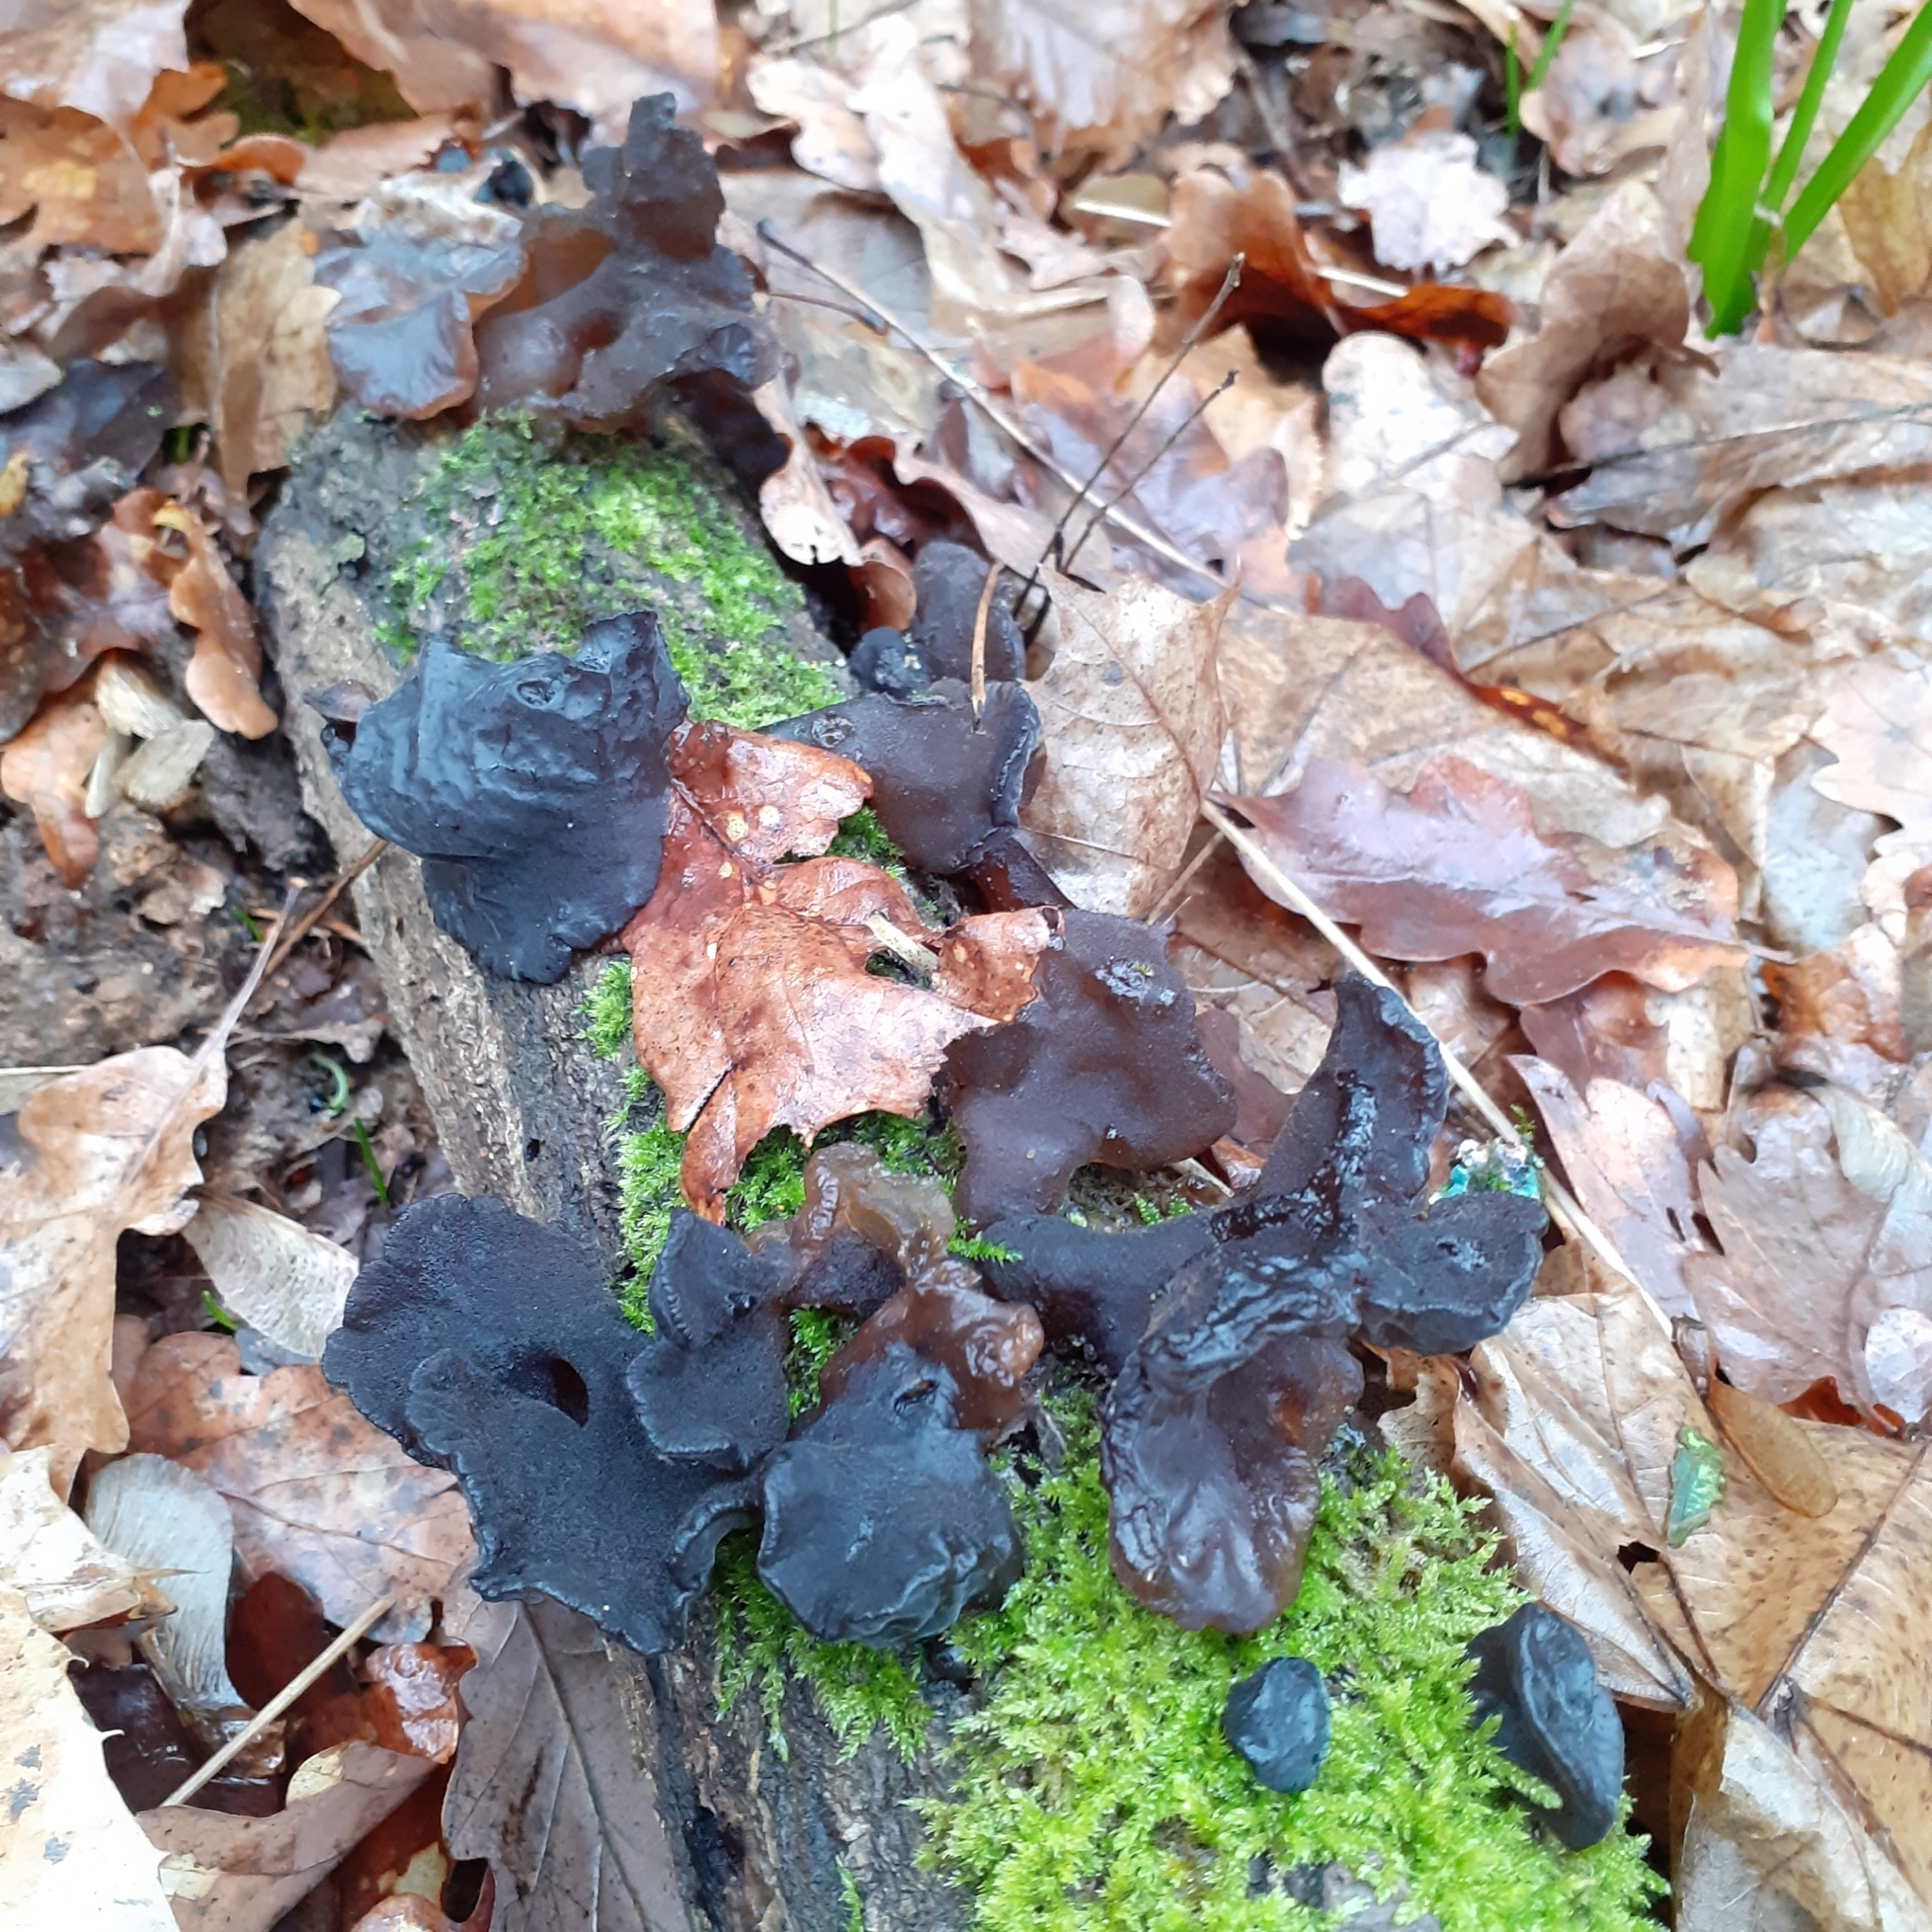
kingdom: Fungi
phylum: Basidiomycota
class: Agaricomycetes
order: Auriculariales
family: Auriculariaceae
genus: Auricularia
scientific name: Auricularia auricula-judae
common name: Jelly ear
